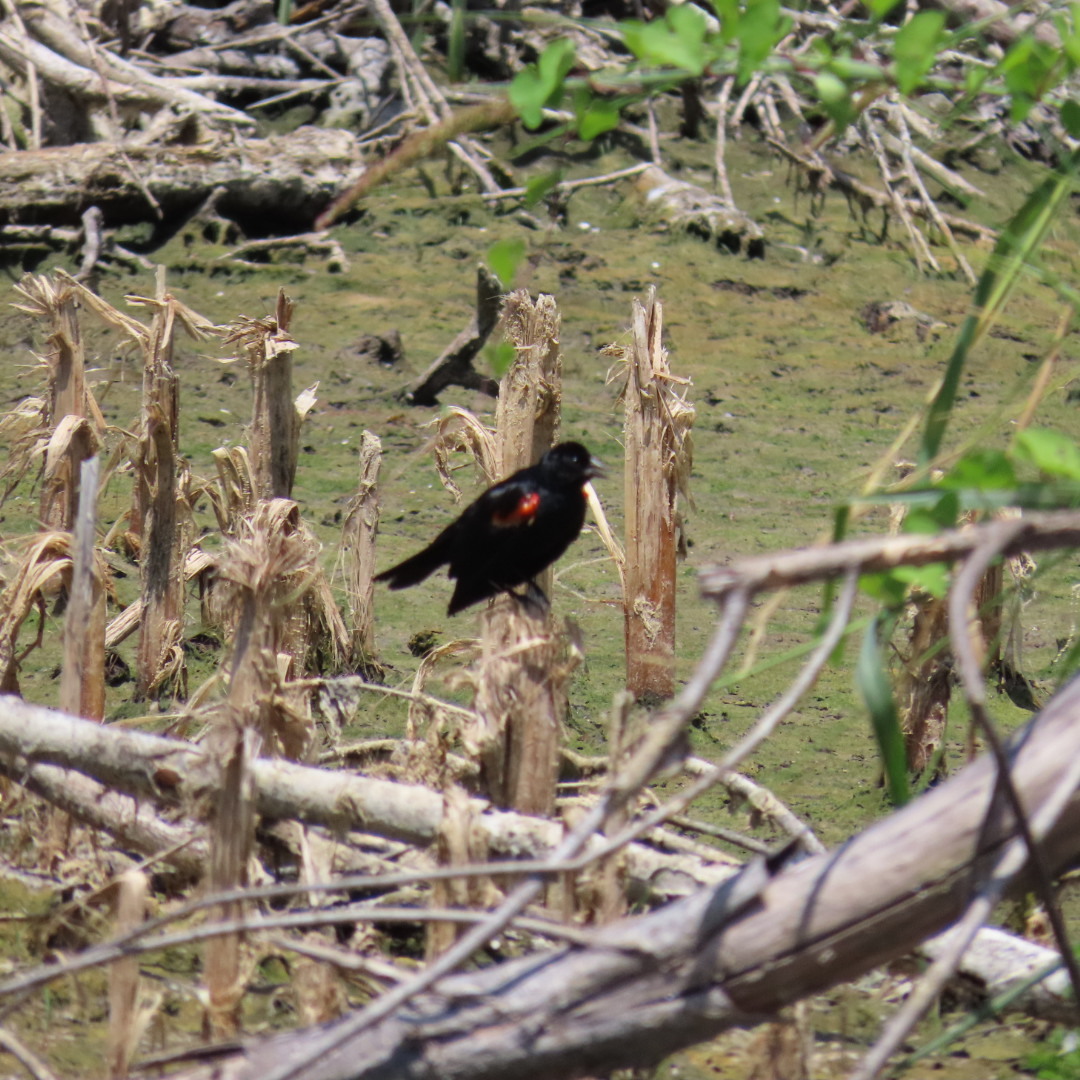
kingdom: Animalia
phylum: Chordata
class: Aves
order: Passeriformes
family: Icteridae
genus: Agelaius
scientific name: Agelaius phoeniceus
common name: Red-winged blackbird
